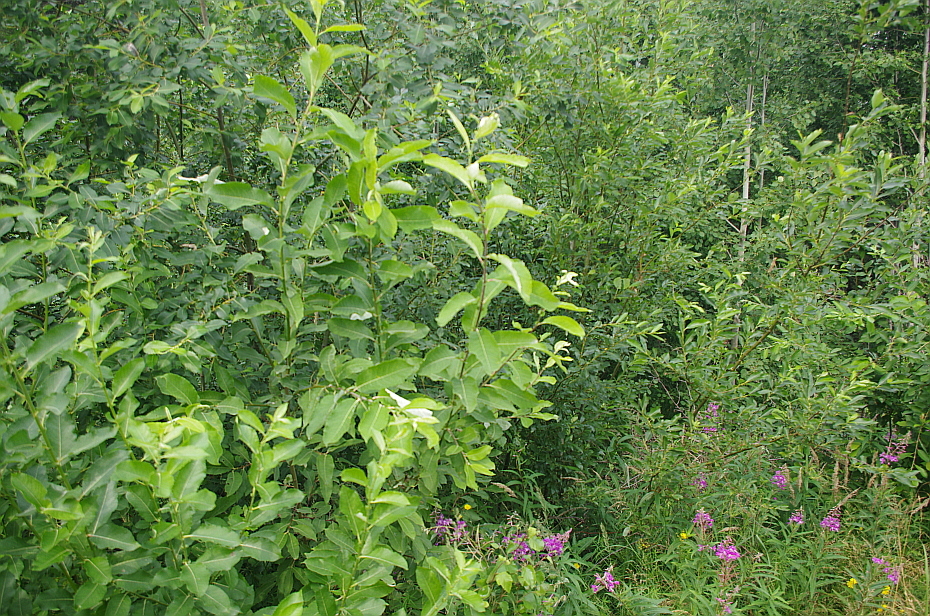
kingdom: Plantae
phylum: Tracheophyta
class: Magnoliopsida
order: Malpighiales
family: Salicaceae
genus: Salix
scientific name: Salix caprea
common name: Goat willow
